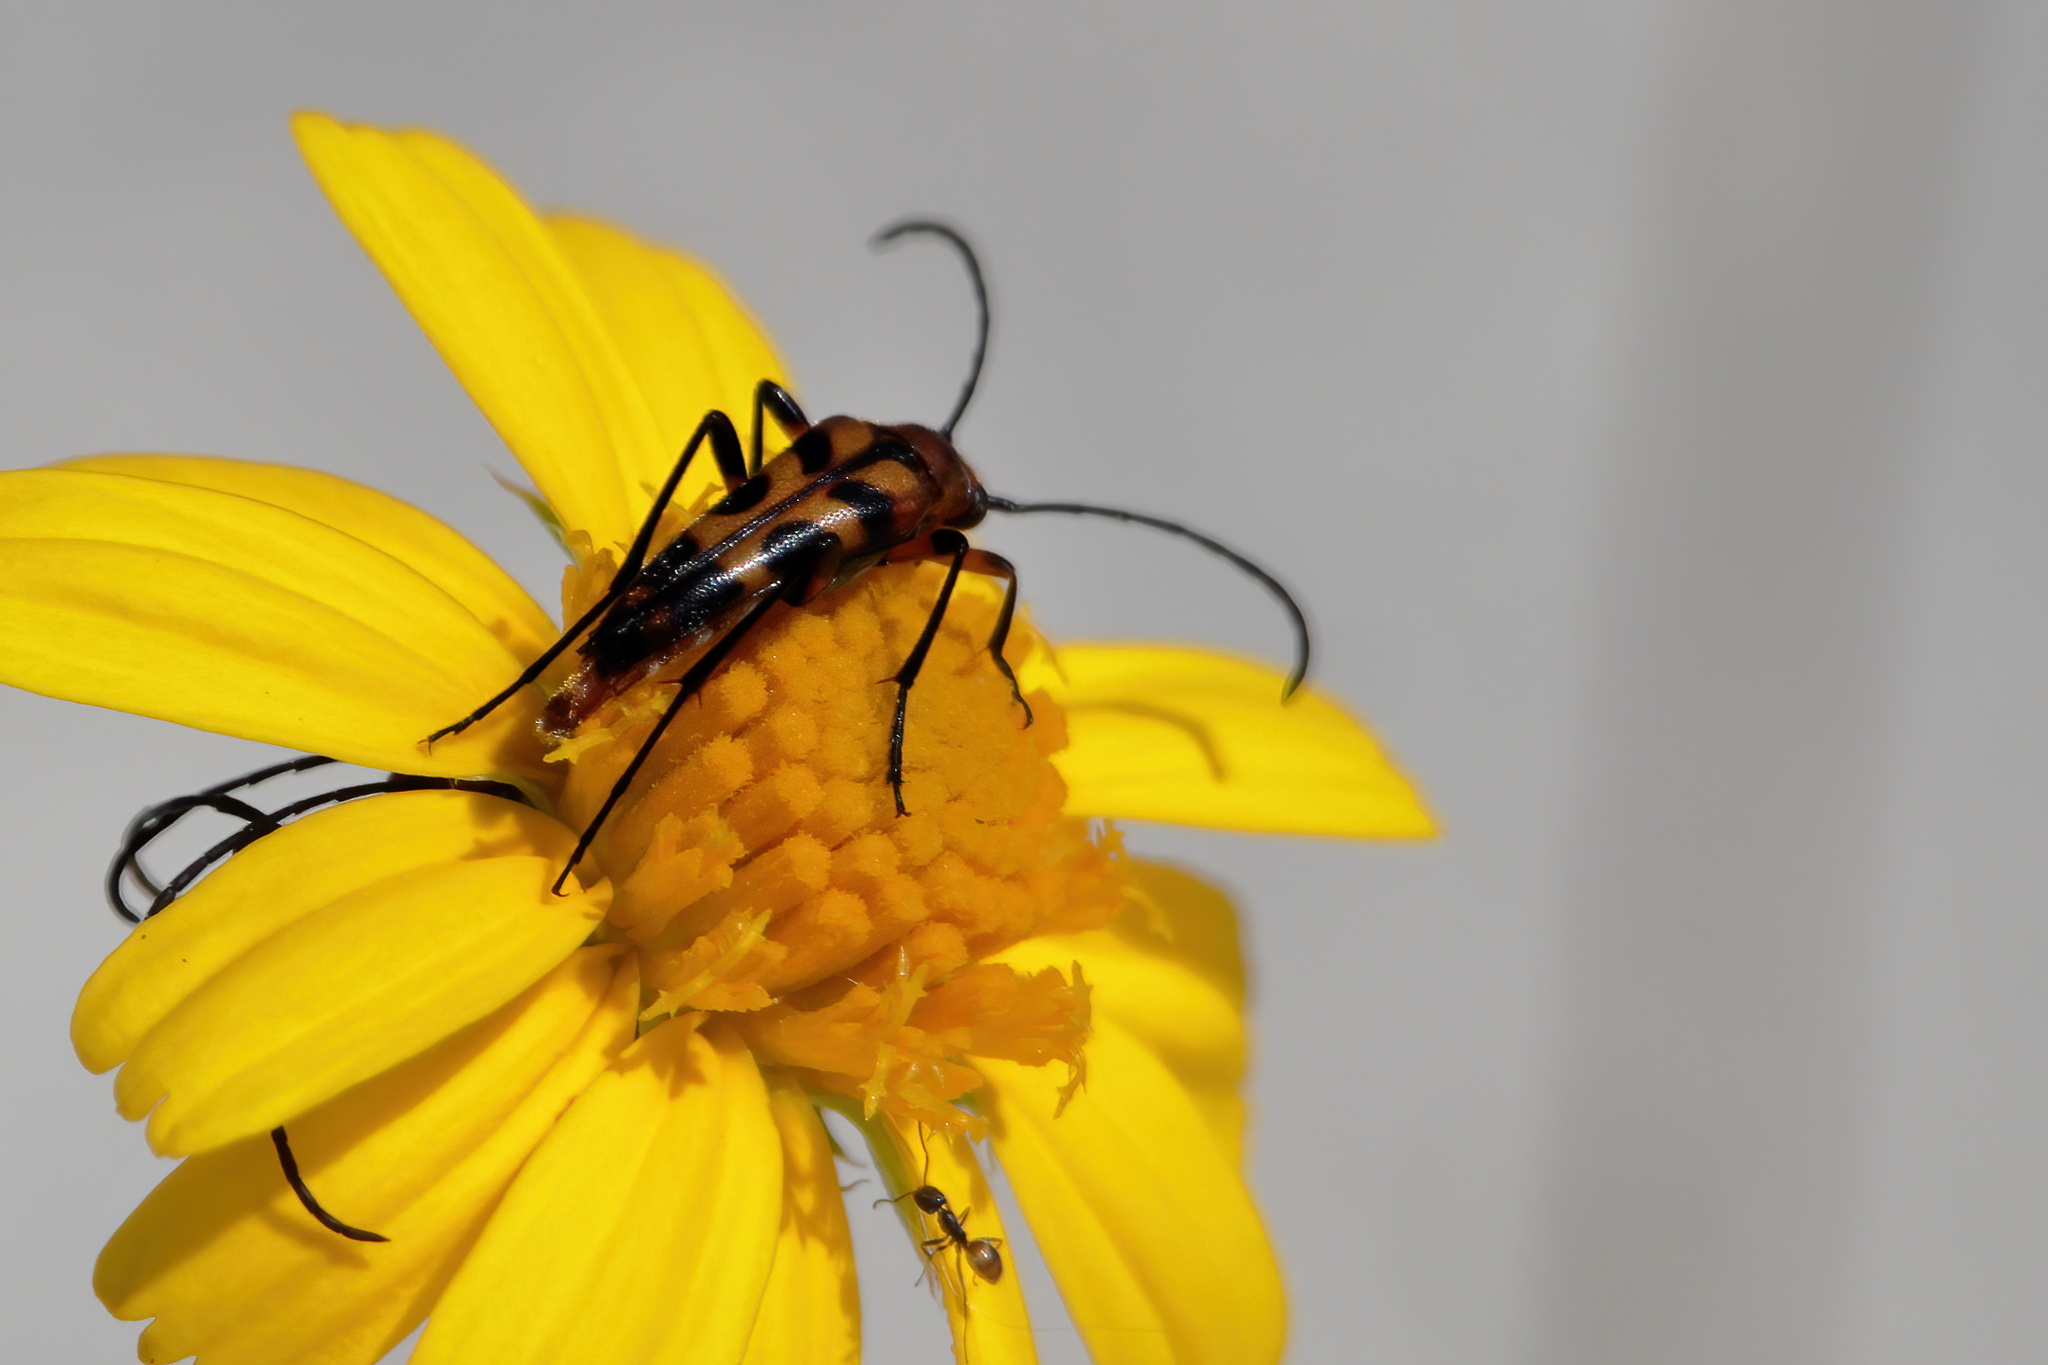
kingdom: Animalia
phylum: Arthropoda
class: Insecta
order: Coleoptera
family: Cerambycidae
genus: Strangalia
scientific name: Strangalia sexnotata
